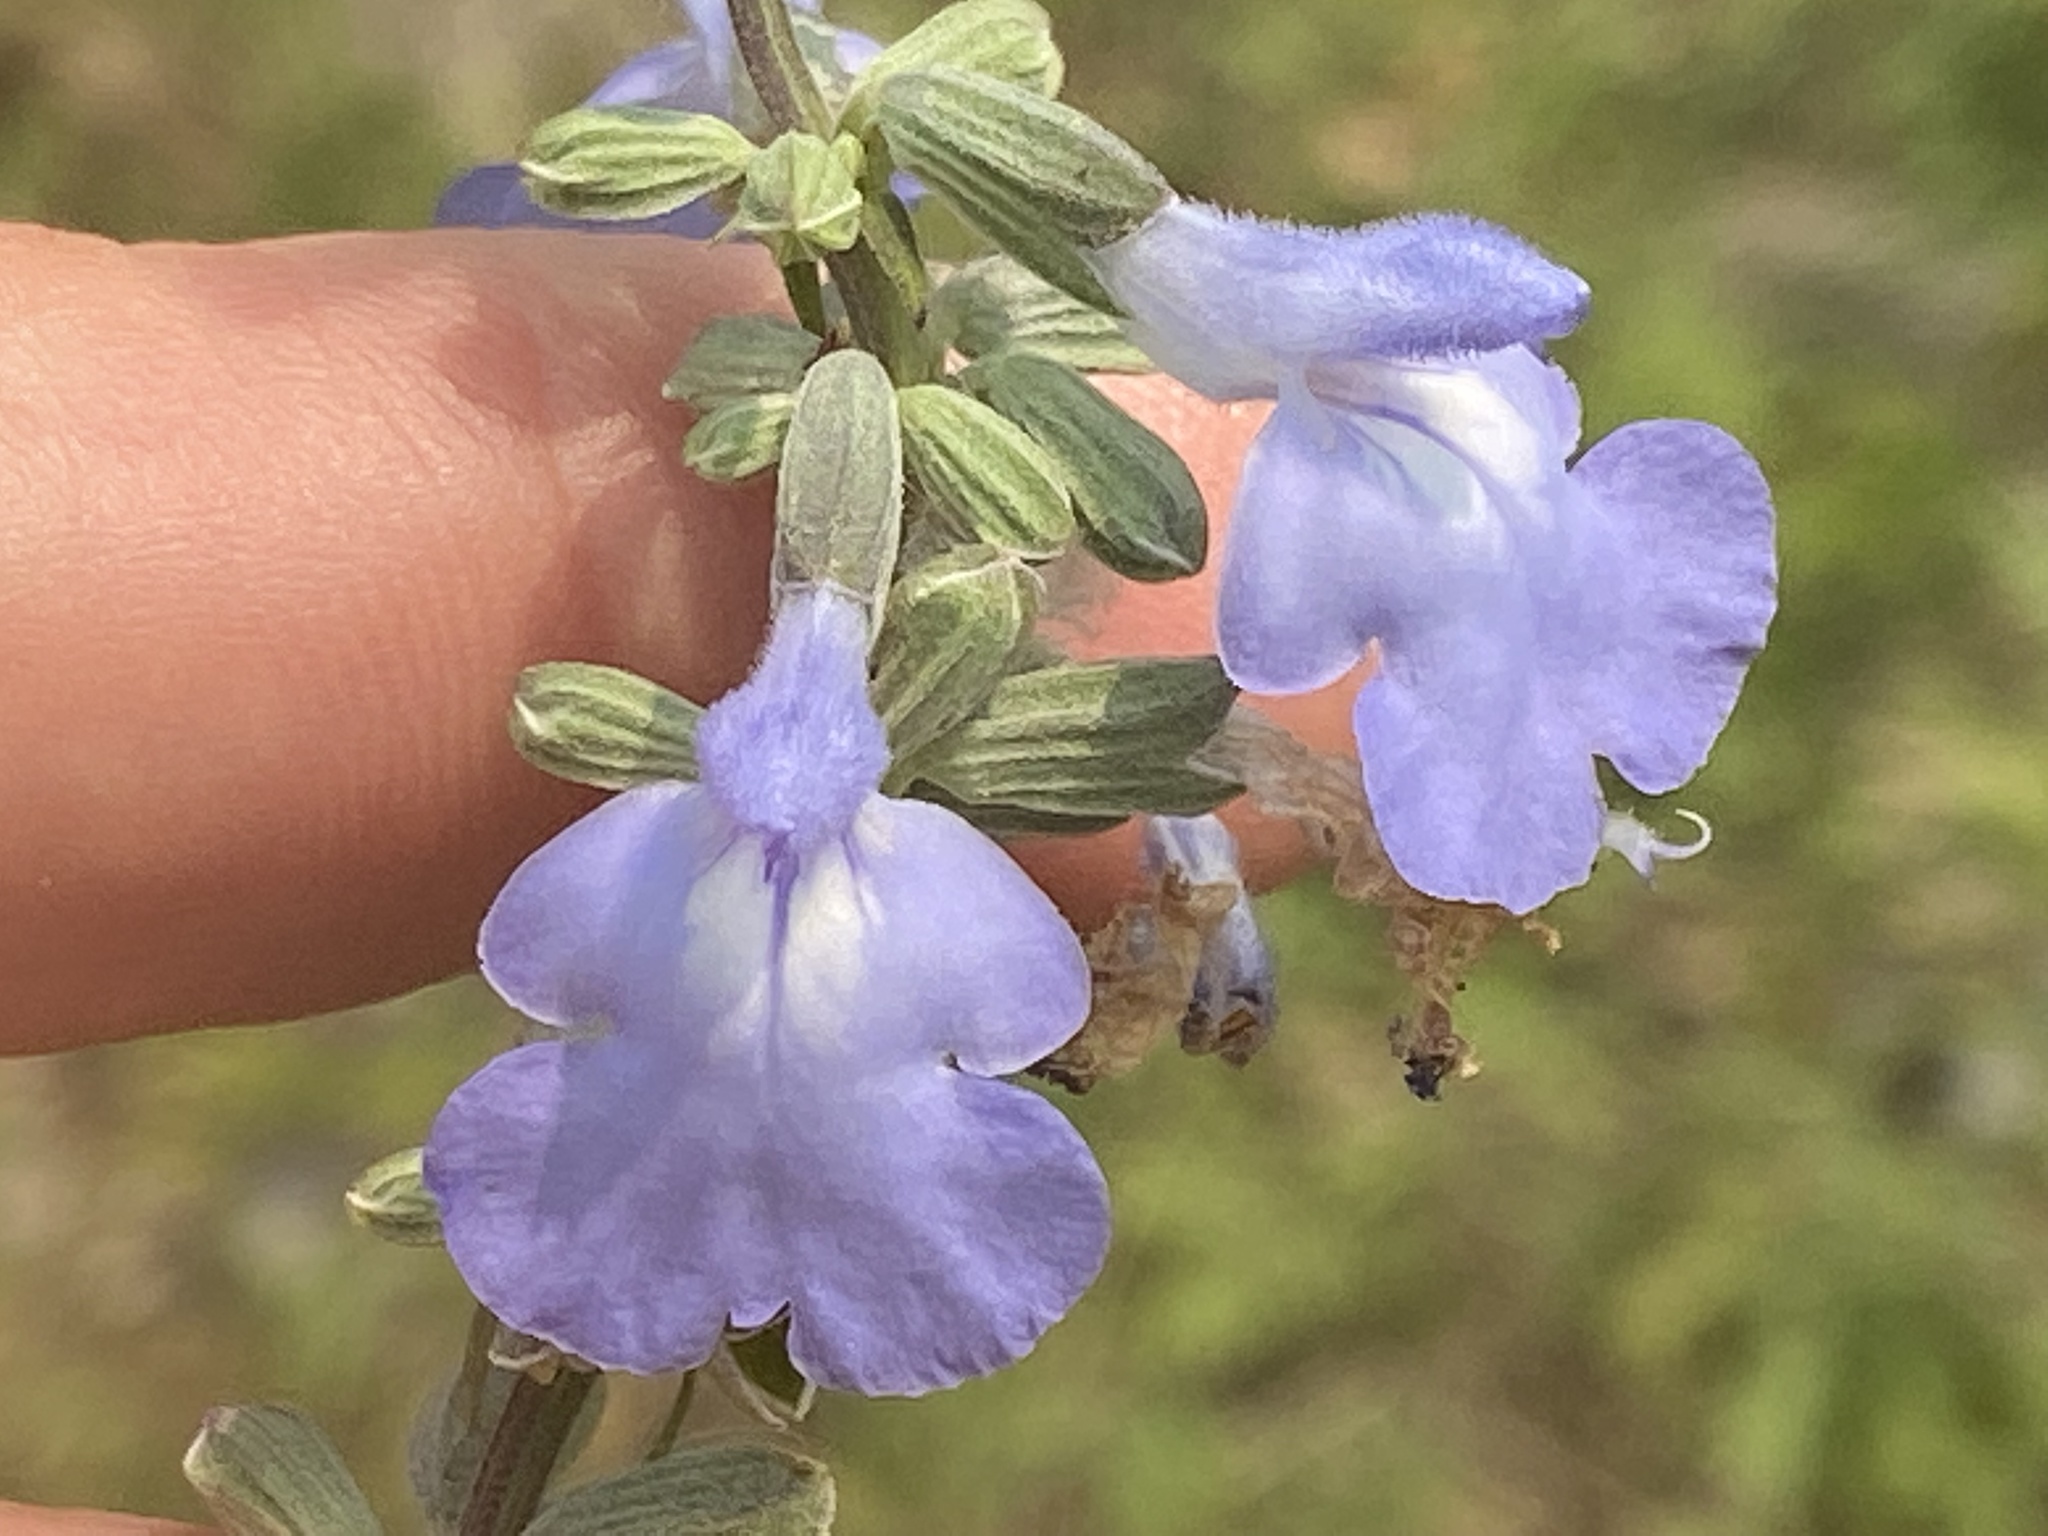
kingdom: Plantae
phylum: Tracheophyta
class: Magnoliopsida
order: Lamiales
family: Lamiaceae
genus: Salvia
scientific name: Salvia azurea
